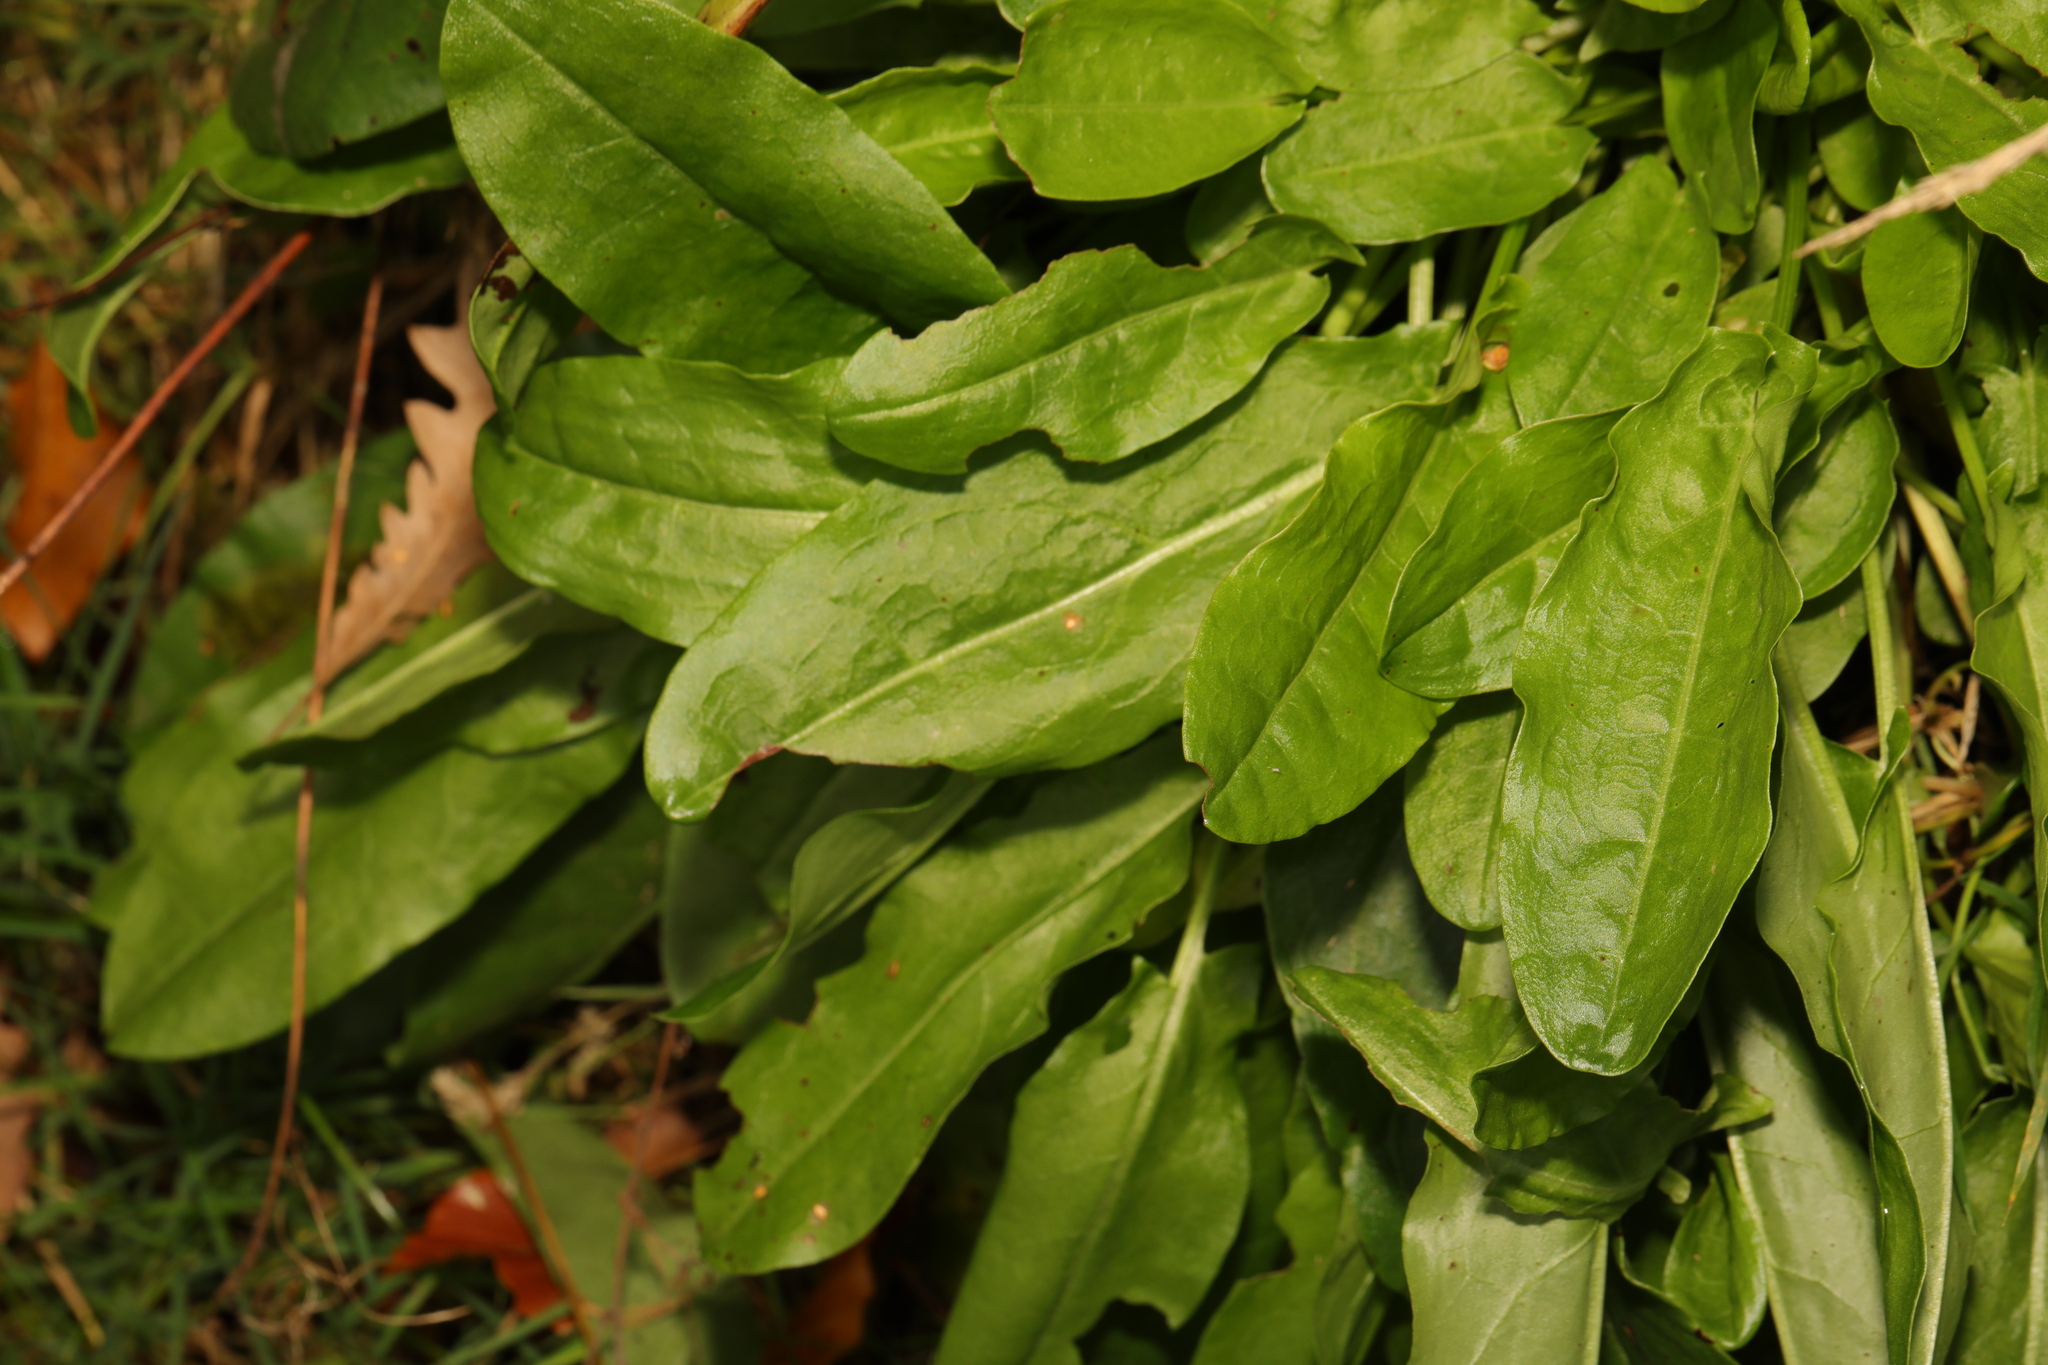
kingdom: Plantae
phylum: Tracheophyta
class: Magnoliopsida
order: Caryophyllales
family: Polygonaceae
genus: Rumex
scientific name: Rumex acetosa
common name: Garden sorrel
